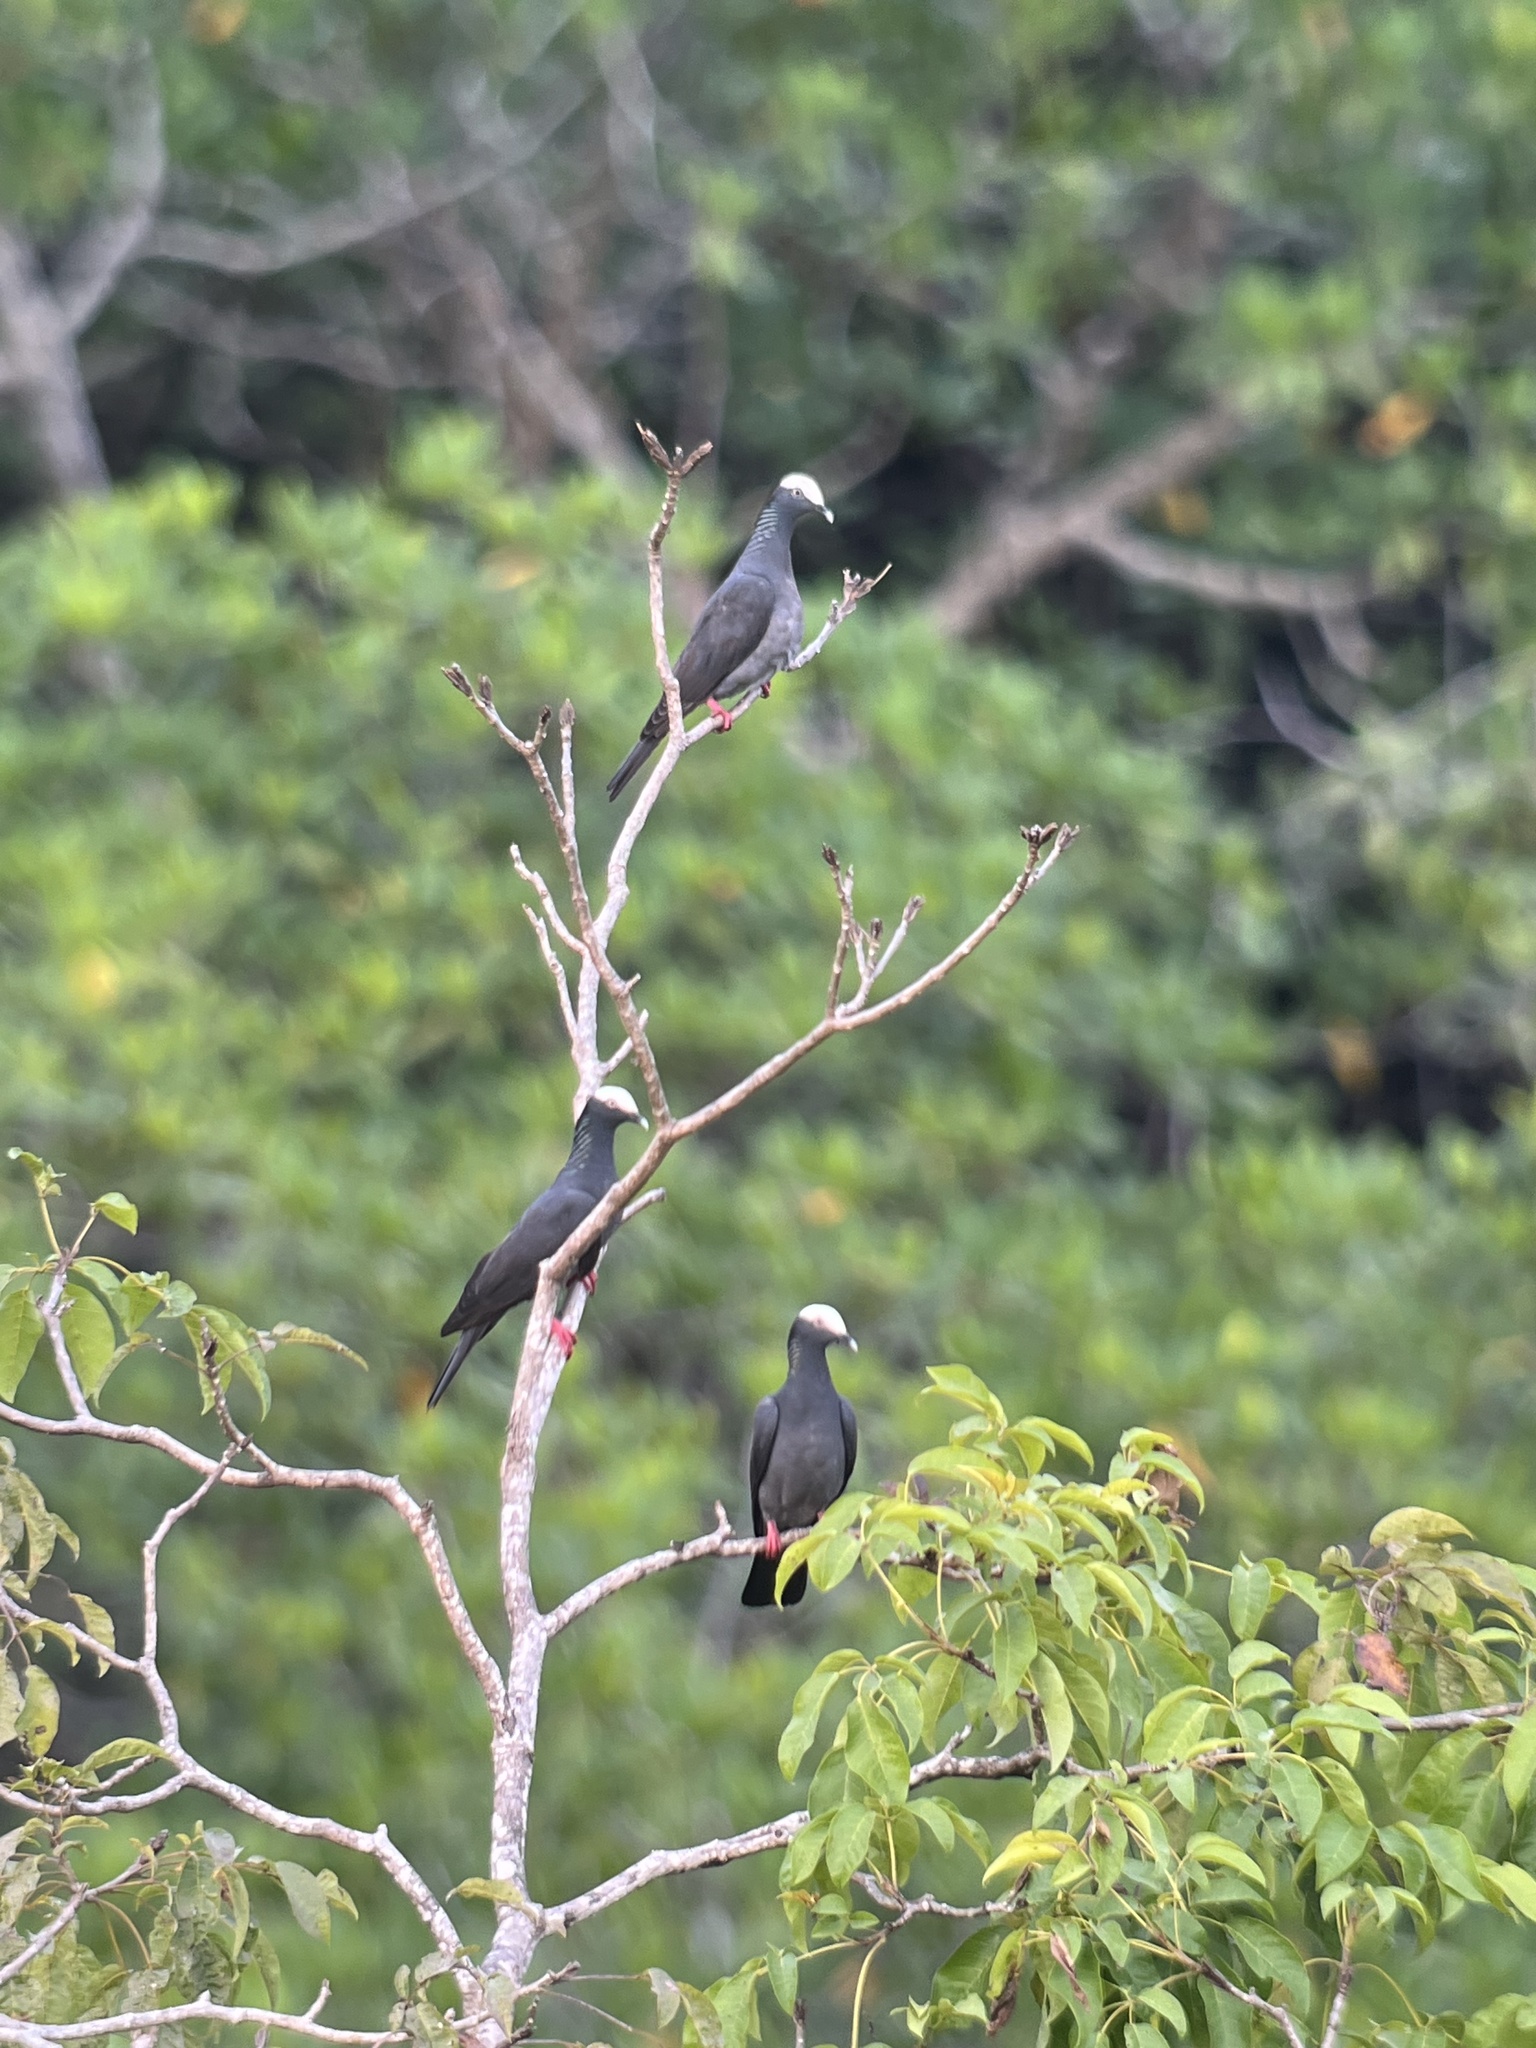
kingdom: Animalia
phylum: Chordata
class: Aves
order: Columbiformes
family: Columbidae
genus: Patagioenas
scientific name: Patagioenas leucocephala
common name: White-crowned pigeon
